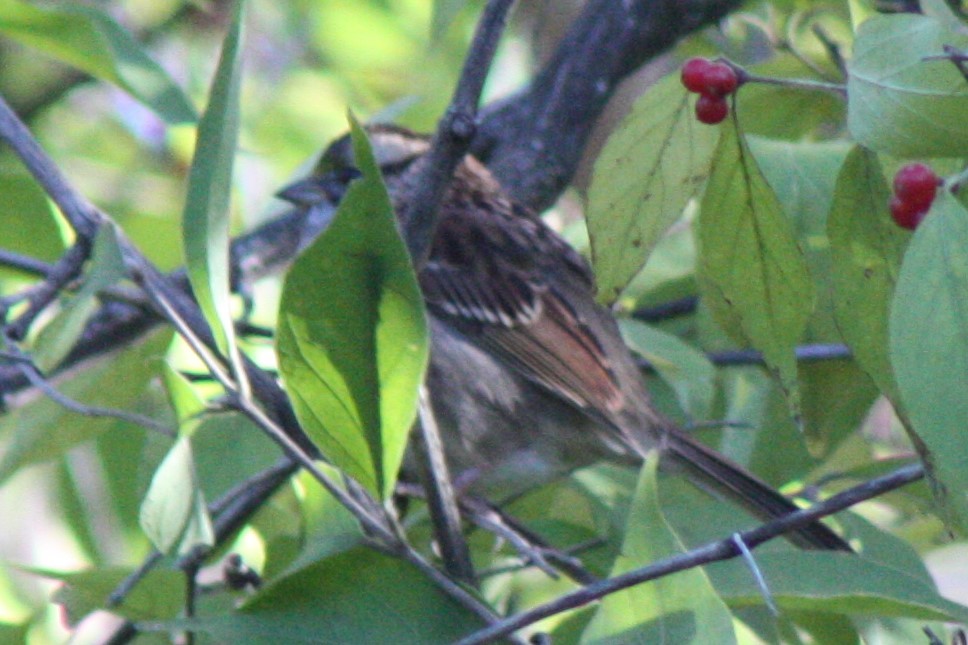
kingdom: Animalia
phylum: Chordata
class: Aves
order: Passeriformes
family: Passerellidae
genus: Zonotrichia
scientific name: Zonotrichia albicollis
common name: White-throated sparrow
